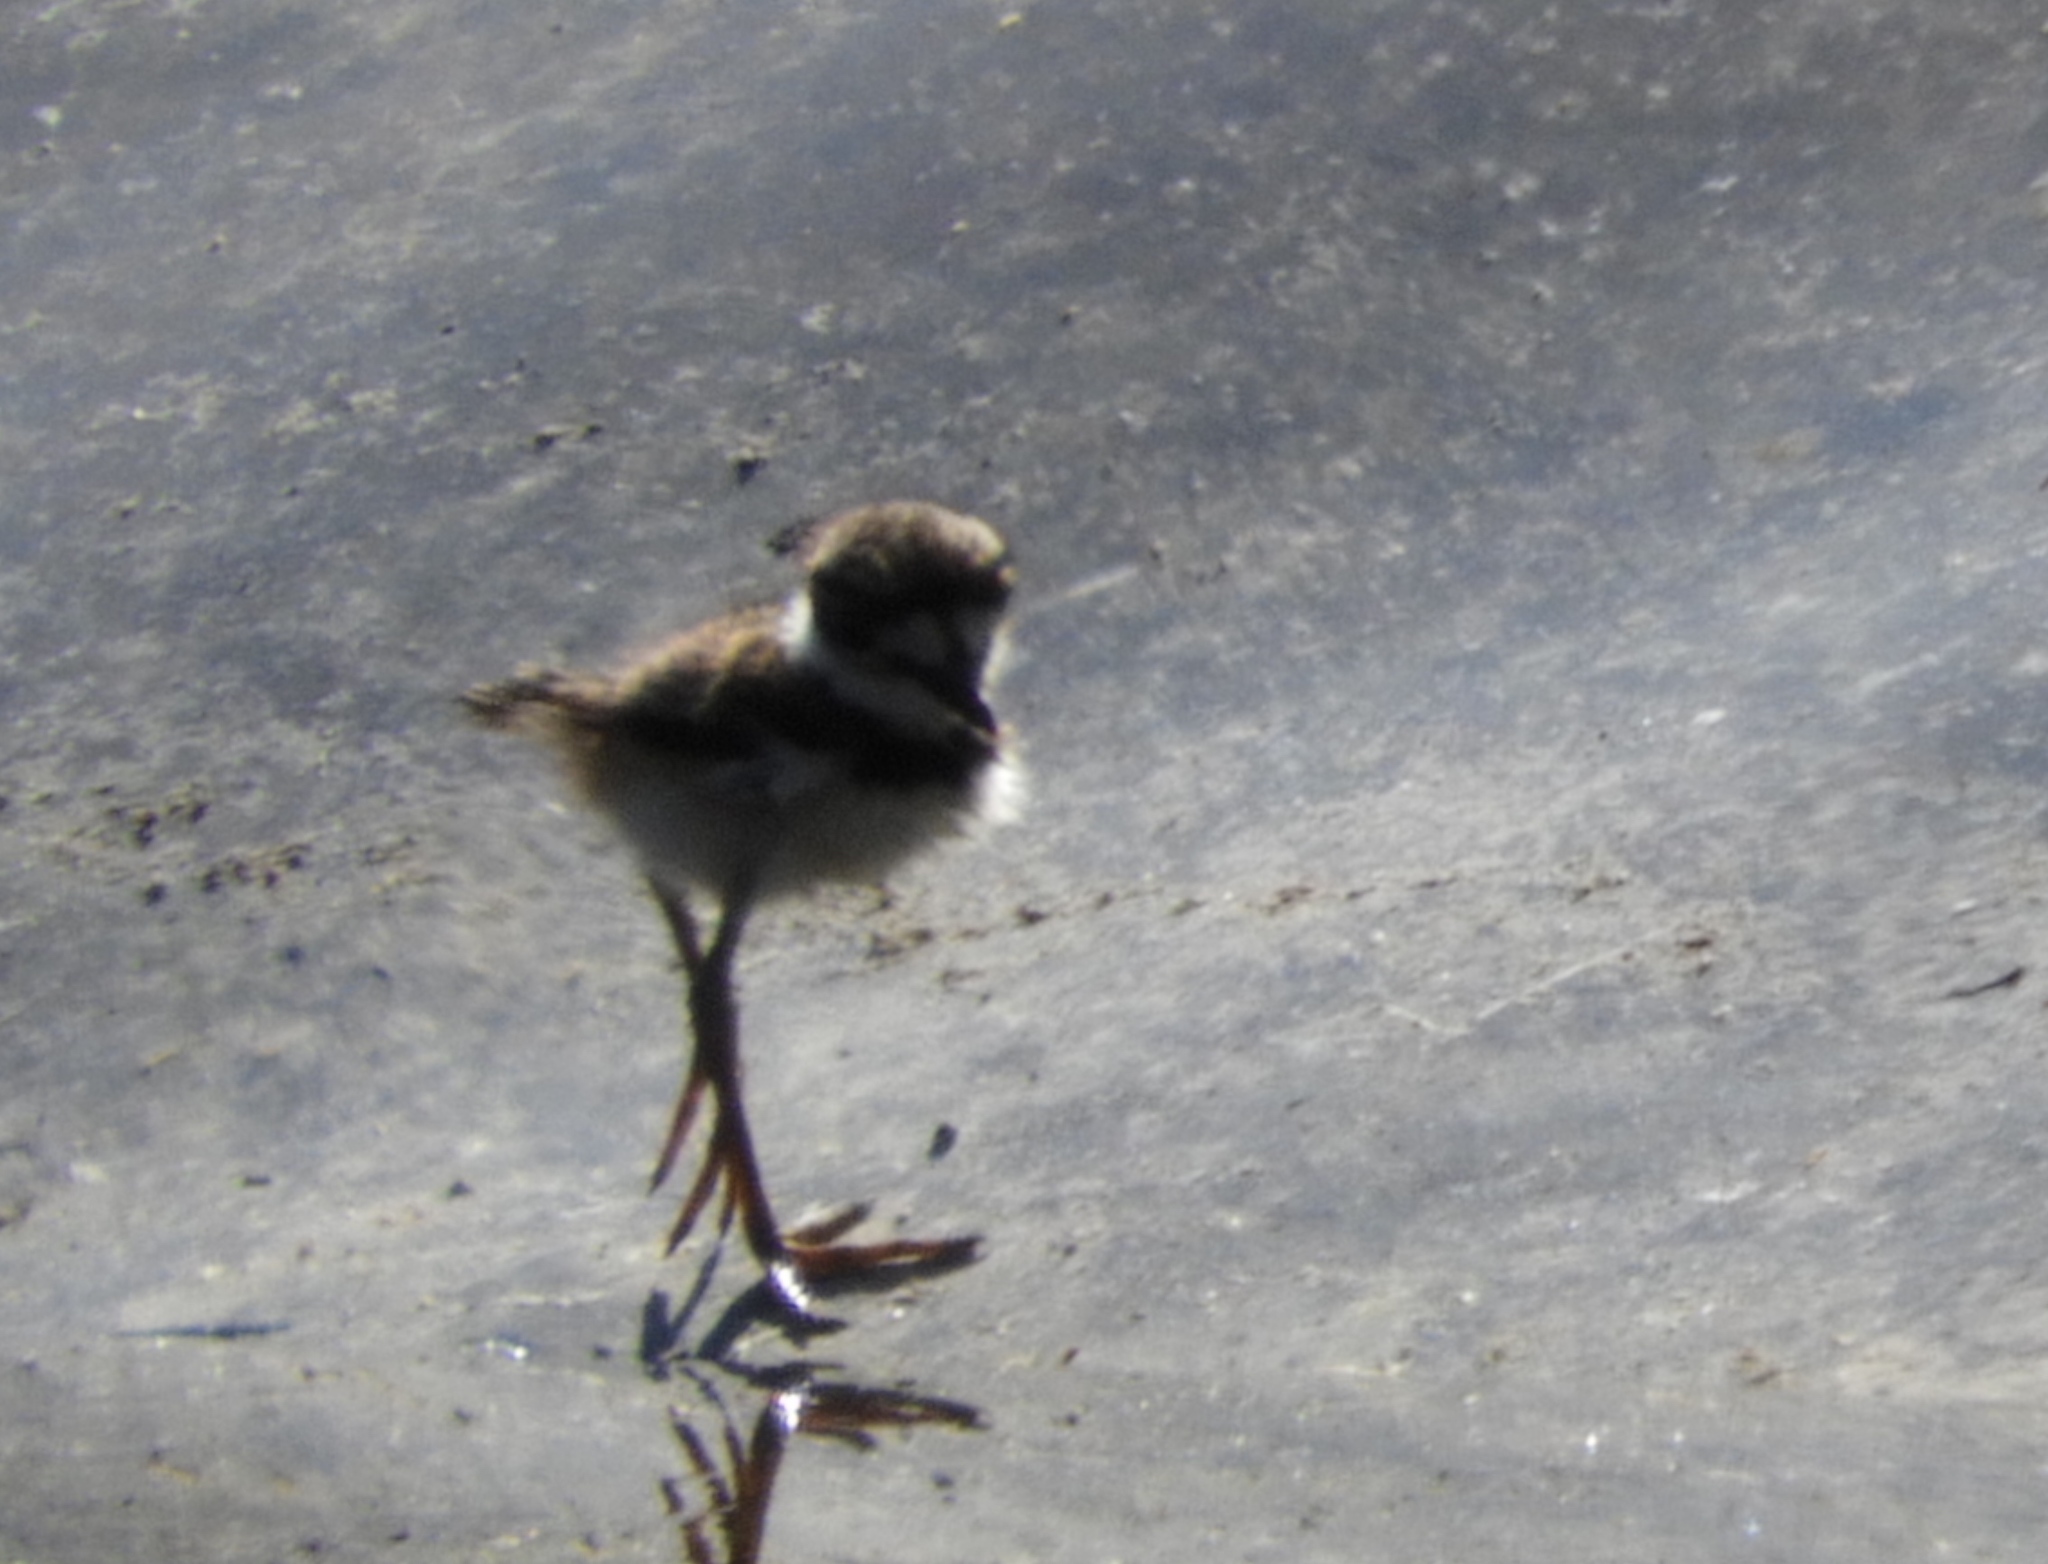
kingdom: Animalia
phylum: Chordata
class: Aves
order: Charadriiformes
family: Charadriidae
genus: Charadrius
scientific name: Charadrius vociferus
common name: Killdeer
